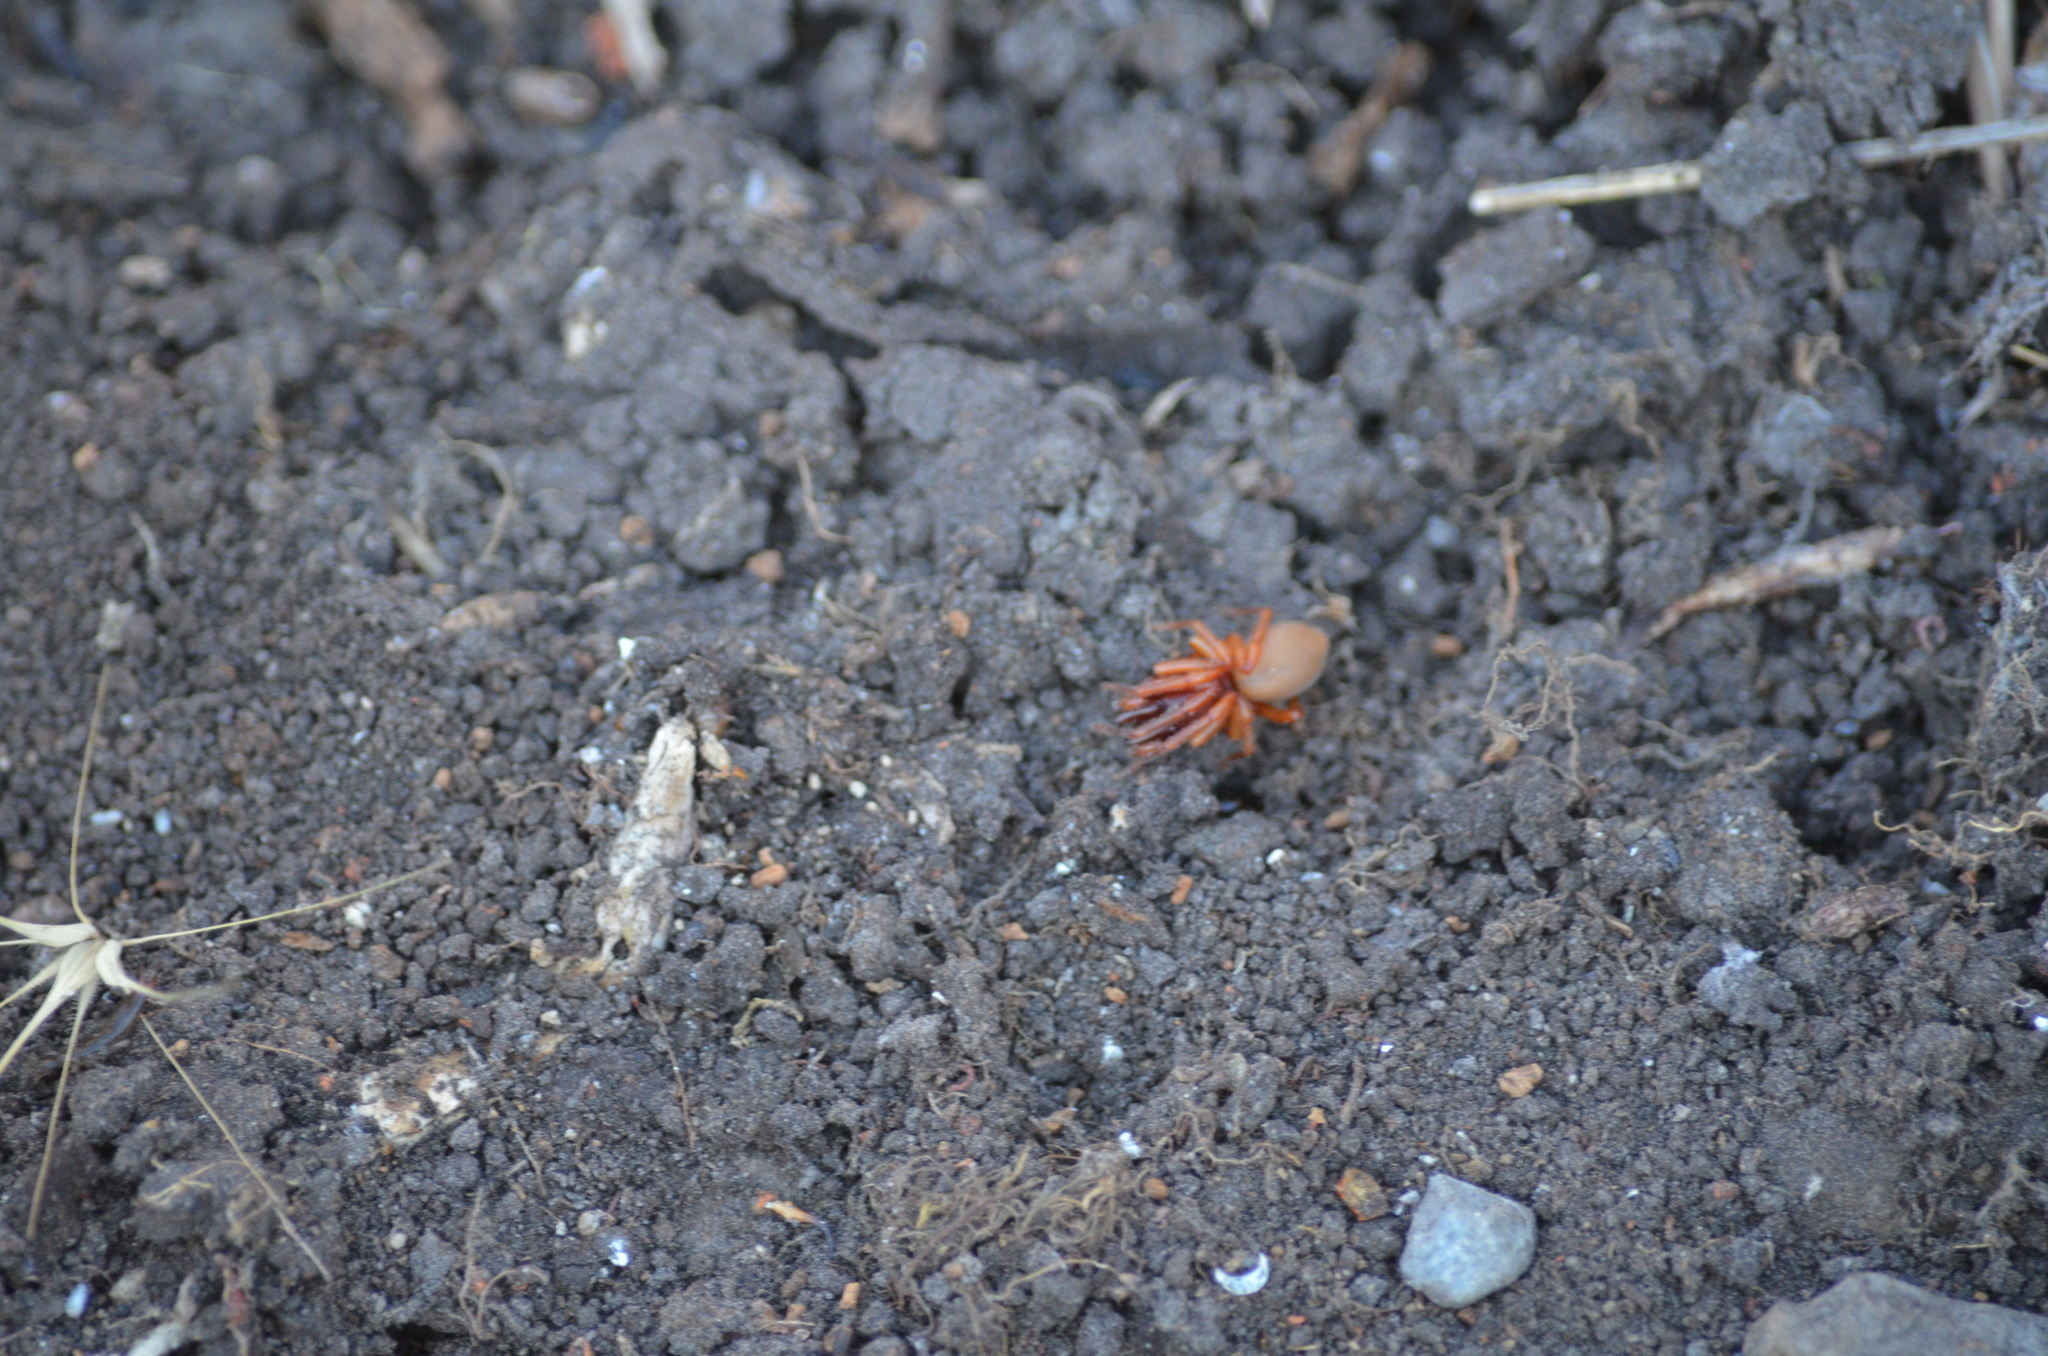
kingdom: Animalia
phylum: Arthropoda
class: Arachnida
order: Araneae
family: Dysderidae
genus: Dysdera
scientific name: Dysdera crocata
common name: Woodlouse spider
